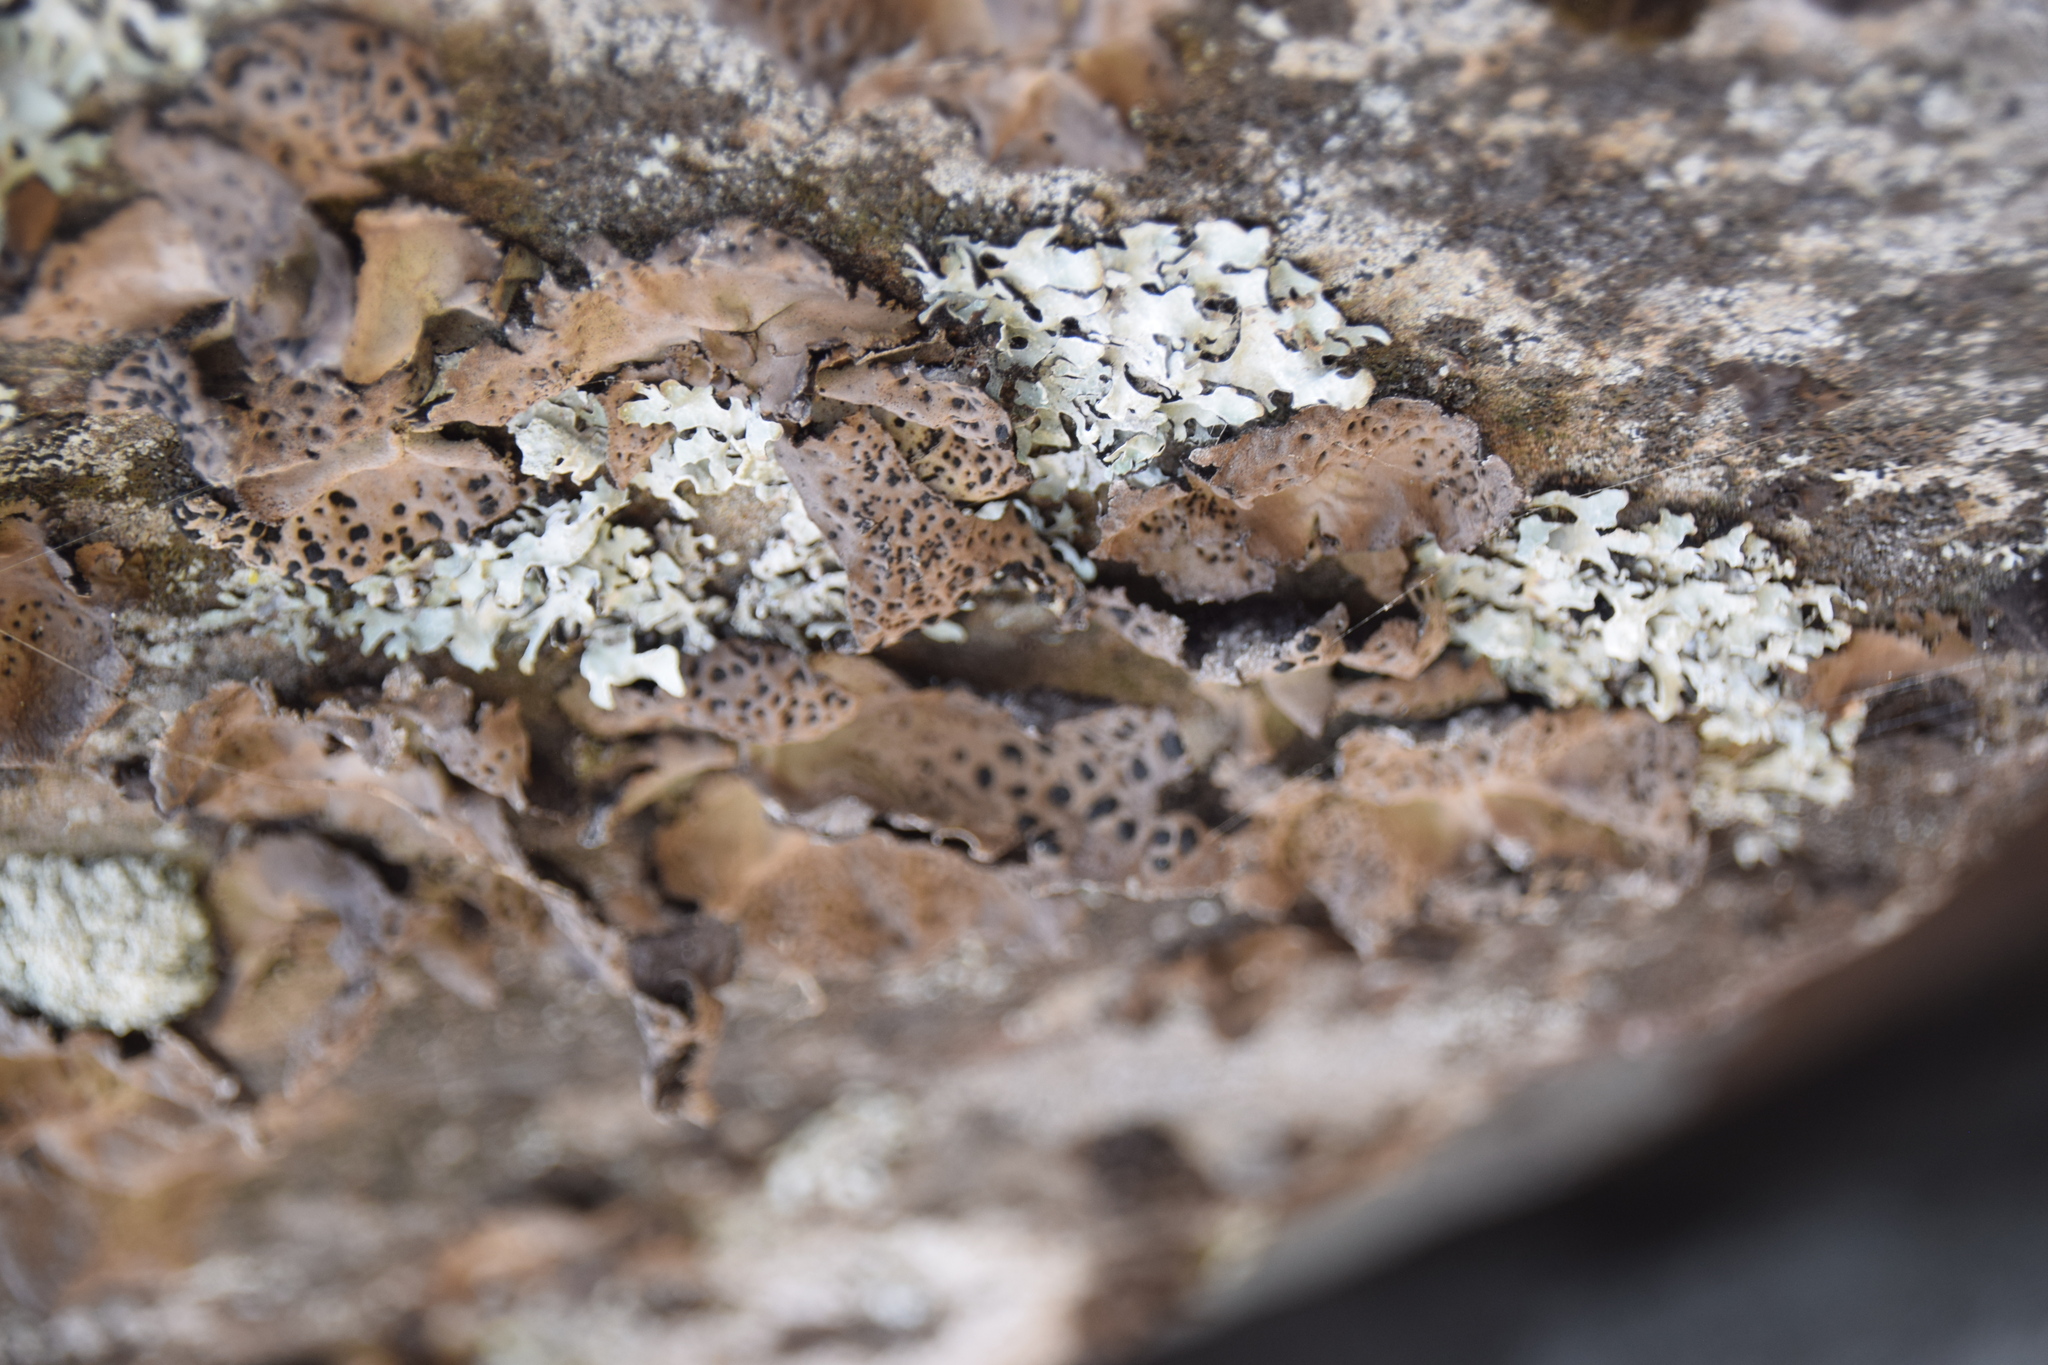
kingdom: Fungi
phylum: Ascomycota
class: Lecanoromycetes
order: Umbilicariales
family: Umbilicariaceae
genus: Umbilicaria
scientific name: Umbilicaria muhlenbergii
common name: Lesser rocktripe
